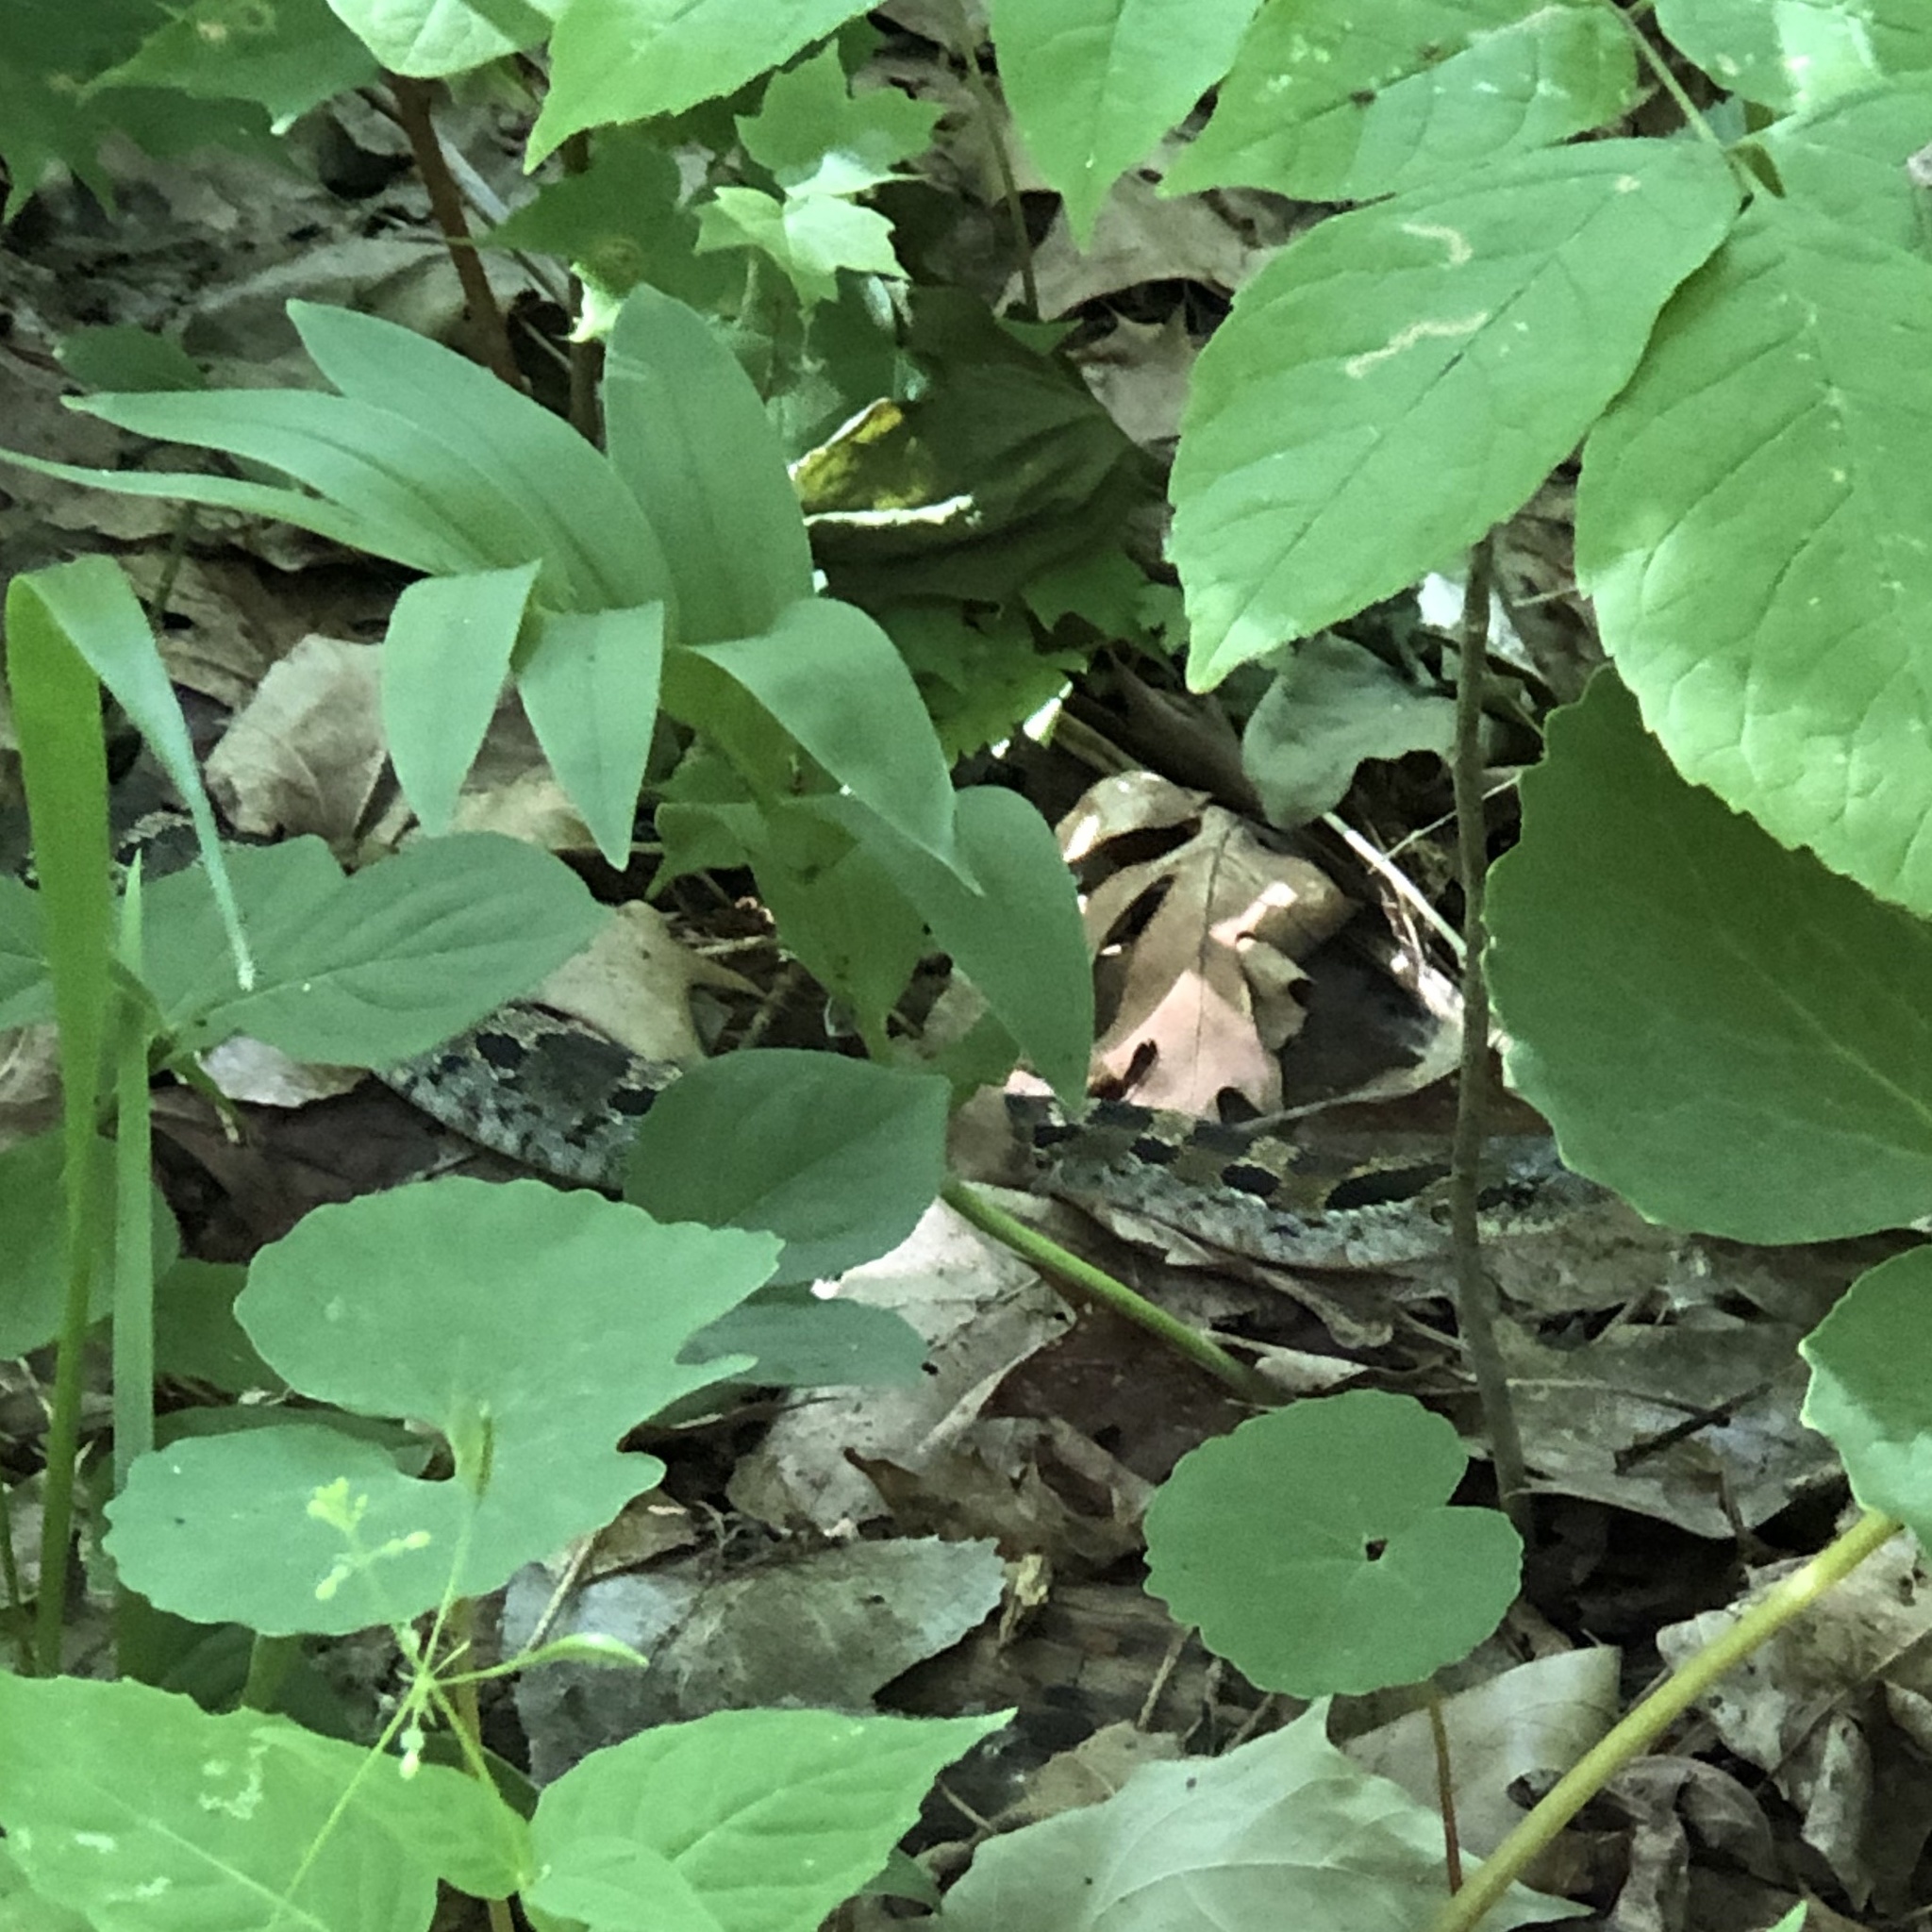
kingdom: Animalia
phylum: Chordata
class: Squamata
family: Colubridae
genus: Heterodon
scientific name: Heterodon platirhinos
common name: Eastern hognose snake
